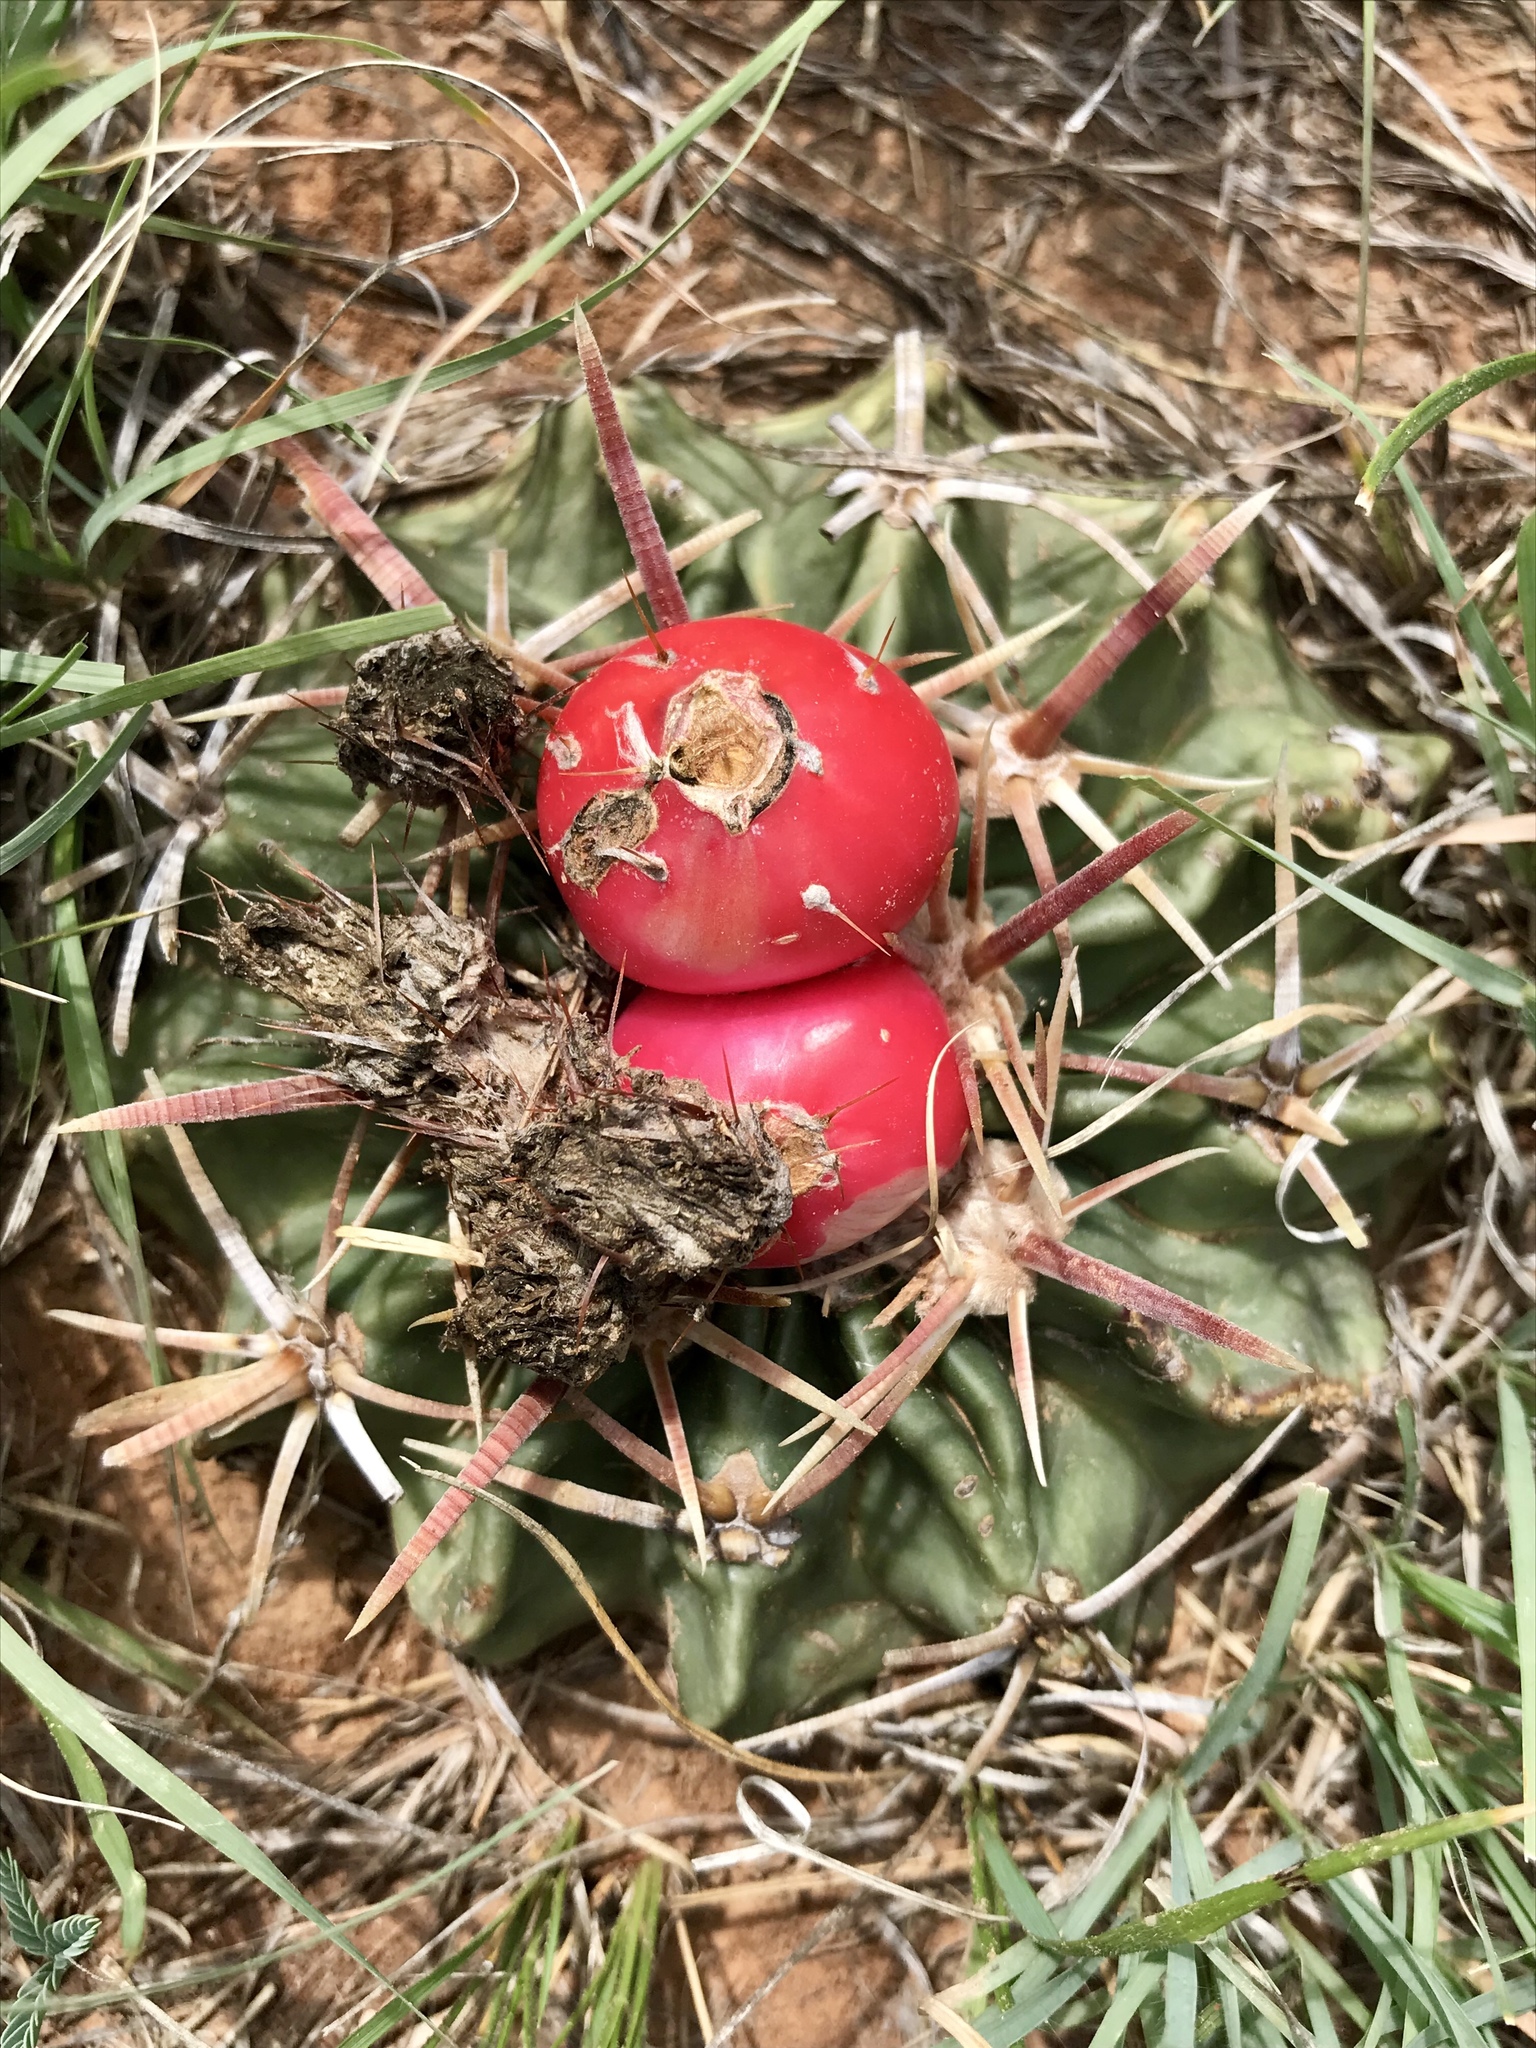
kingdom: Plantae
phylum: Tracheophyta
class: Magnoliopsida
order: Caryophyllales
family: Cactaceae
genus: Echinocactus
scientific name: Echinocactus texensis
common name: Devil's pincushion
